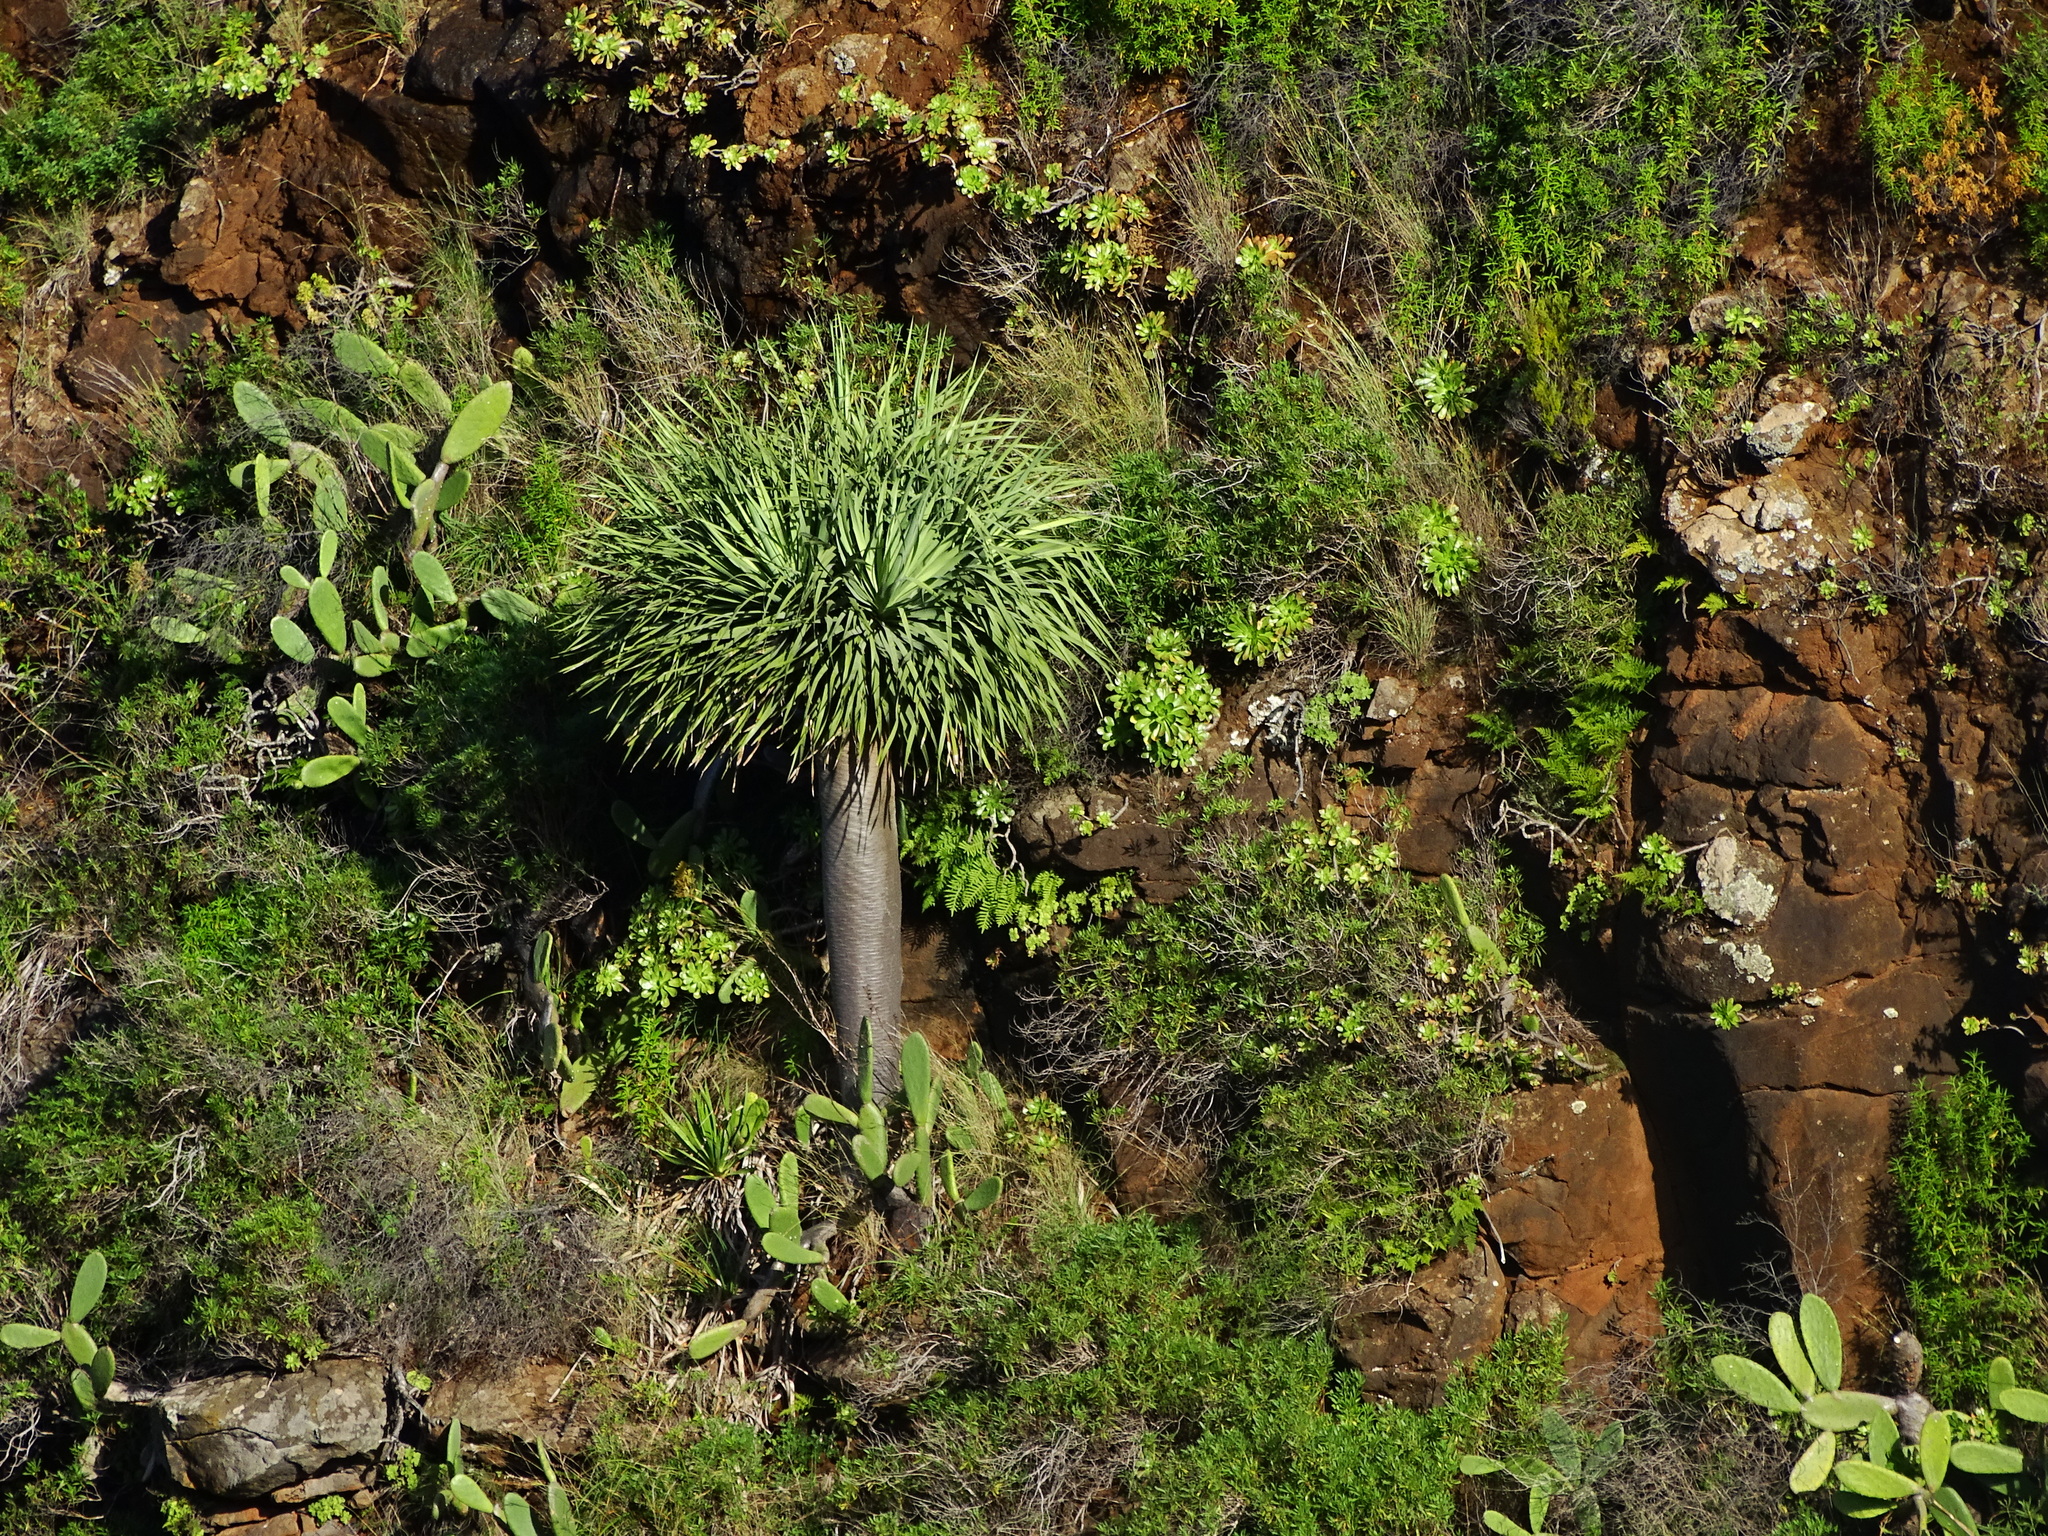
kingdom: Plantae
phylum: Tracheophyta
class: Liliopsida
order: Asparagales
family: Asparagaceae
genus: Dracaena
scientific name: Dracaena draco
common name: Canary island dragon tree
